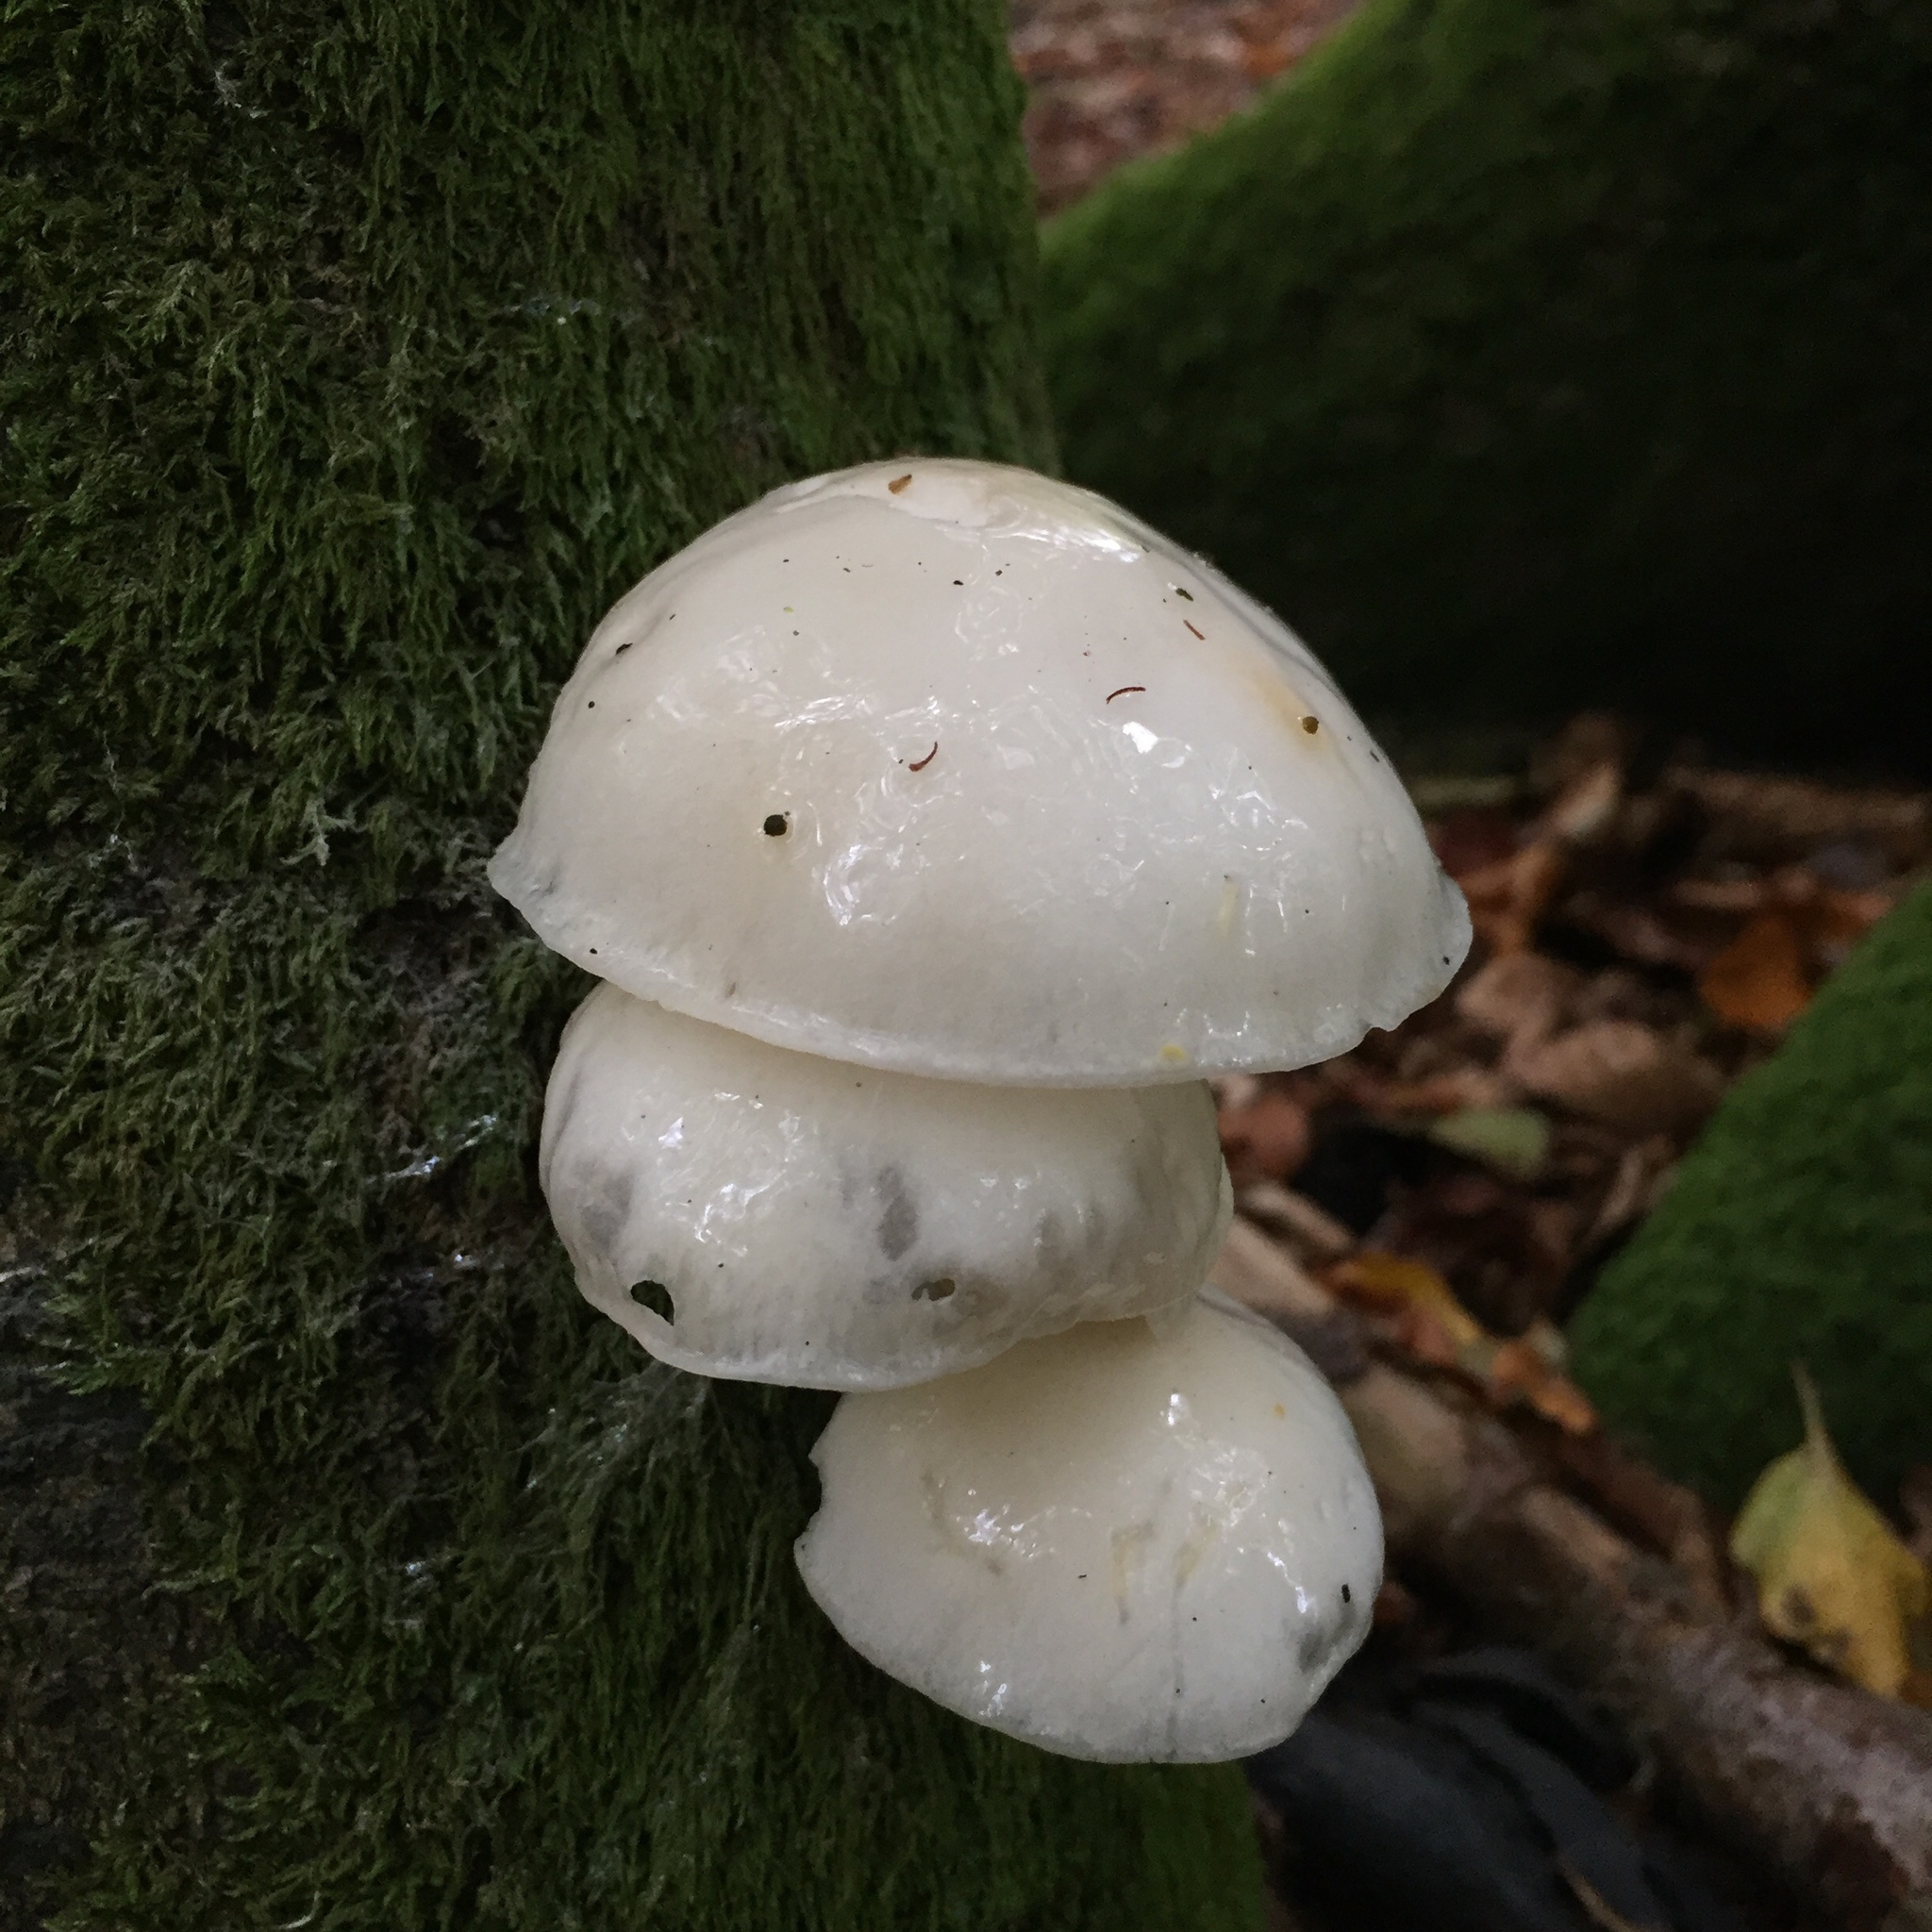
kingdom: Fungi
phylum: Basidiomycota
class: Agaricomycetes
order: Agaricales
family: Physalacriaceae
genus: Mucidula
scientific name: Mucidula mucida
